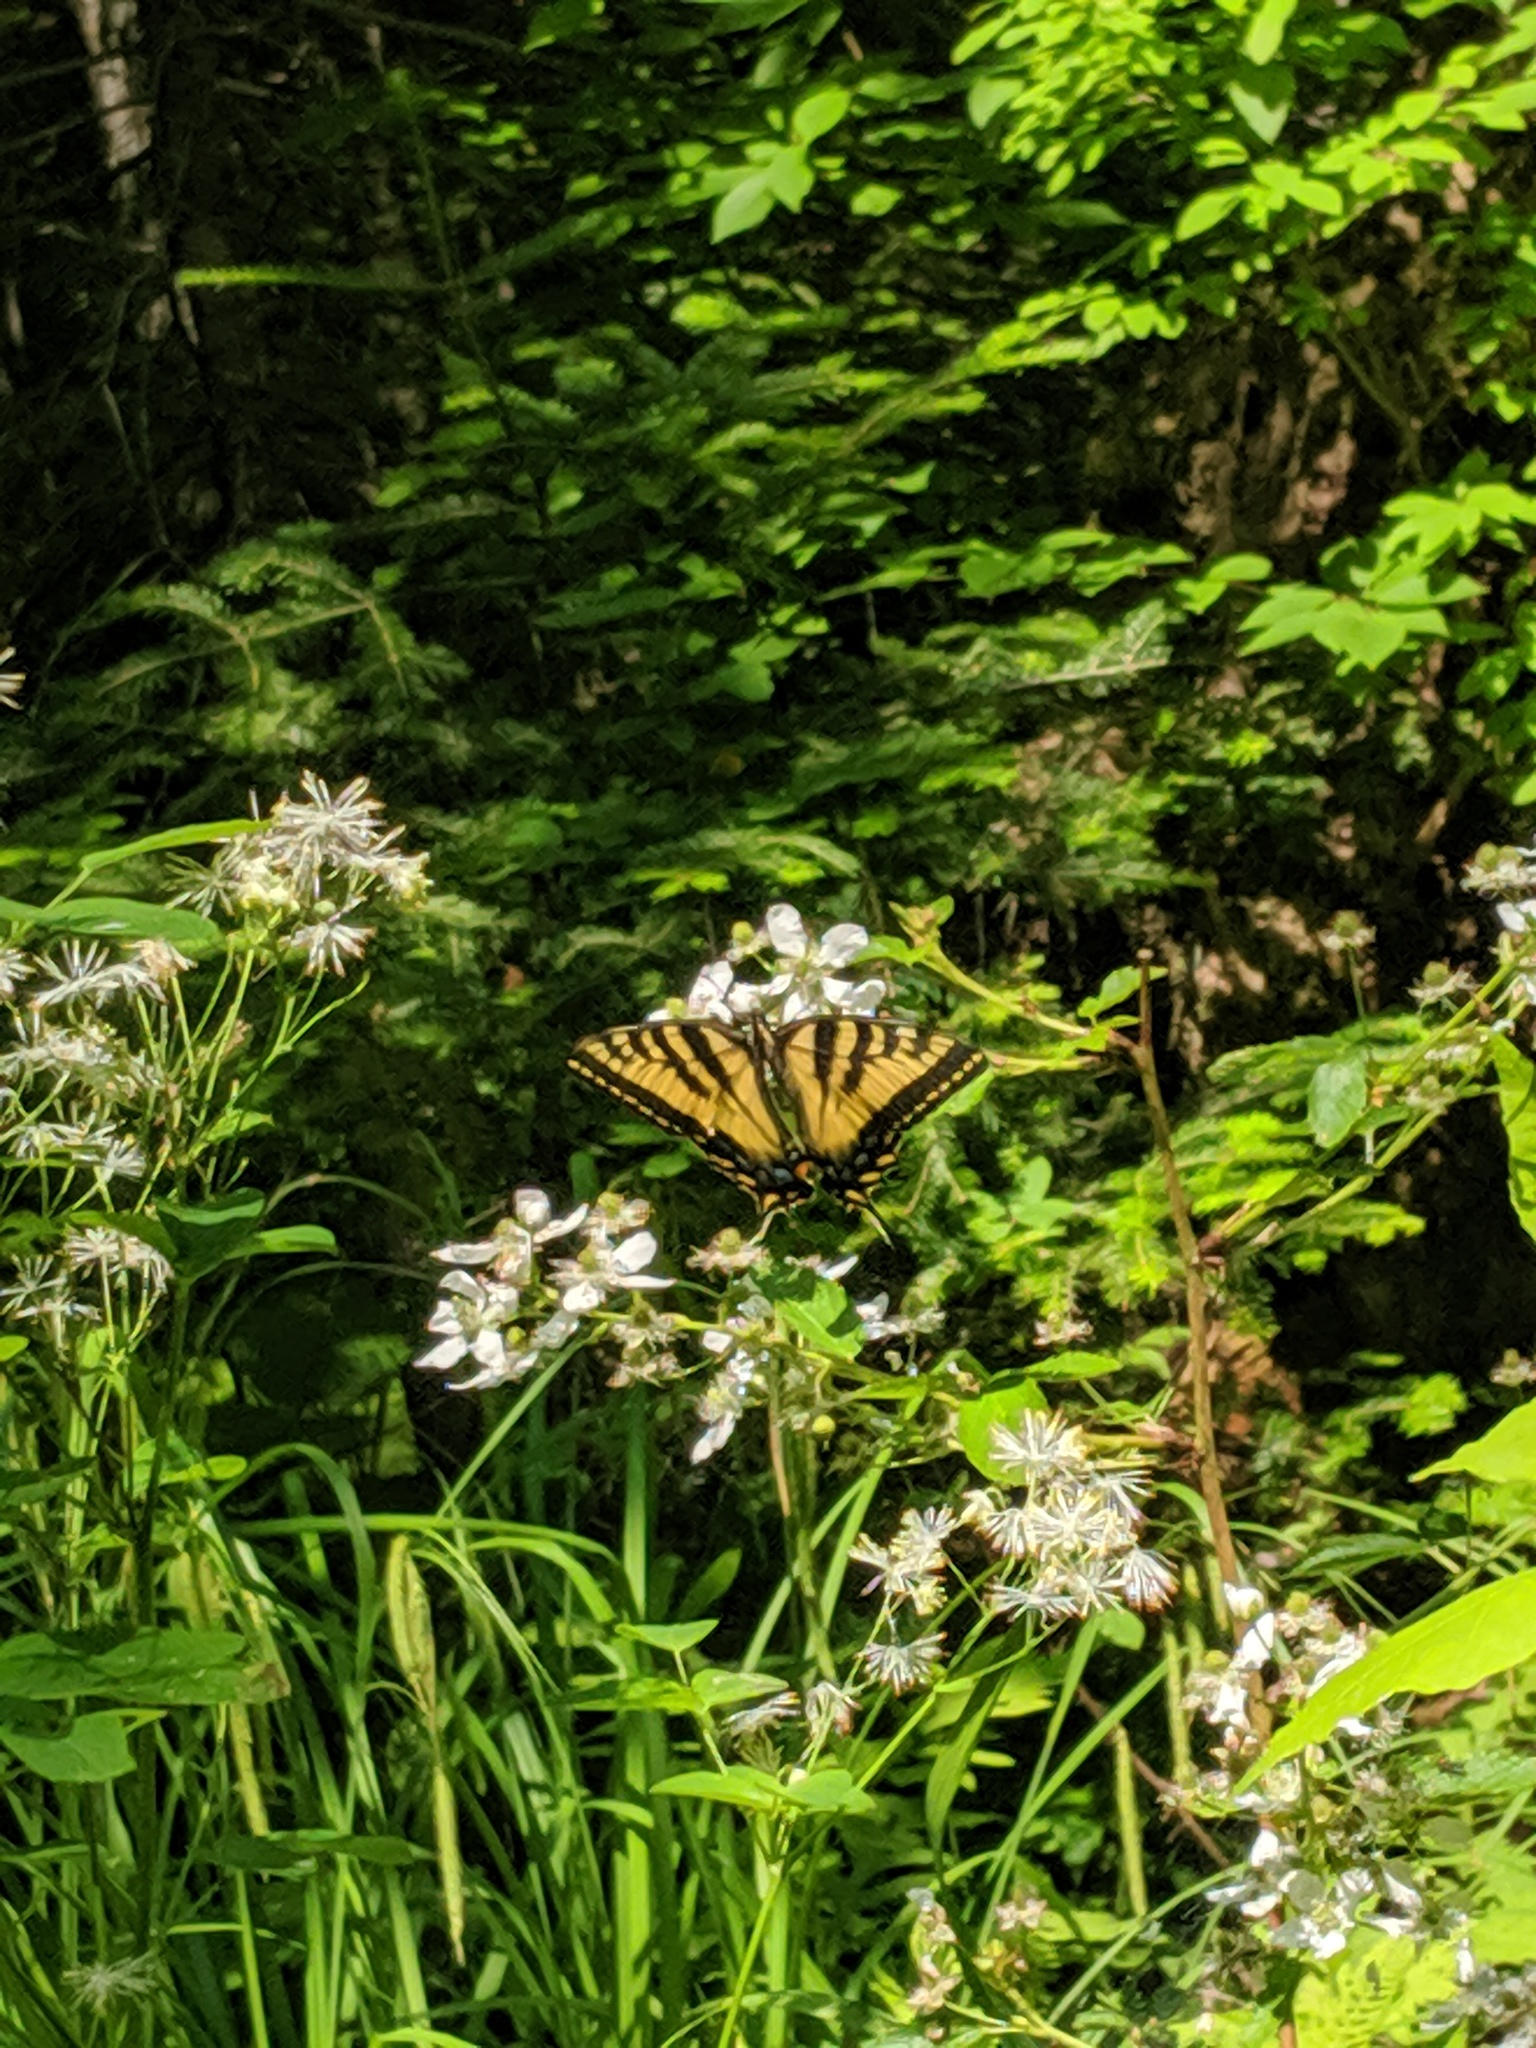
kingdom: Animalia
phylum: Arthropoda
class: Insecta
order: Lepidoptera
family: Papilionidae
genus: Papilio
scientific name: Papilio canadensis
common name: Canadian tiger swallowtail
